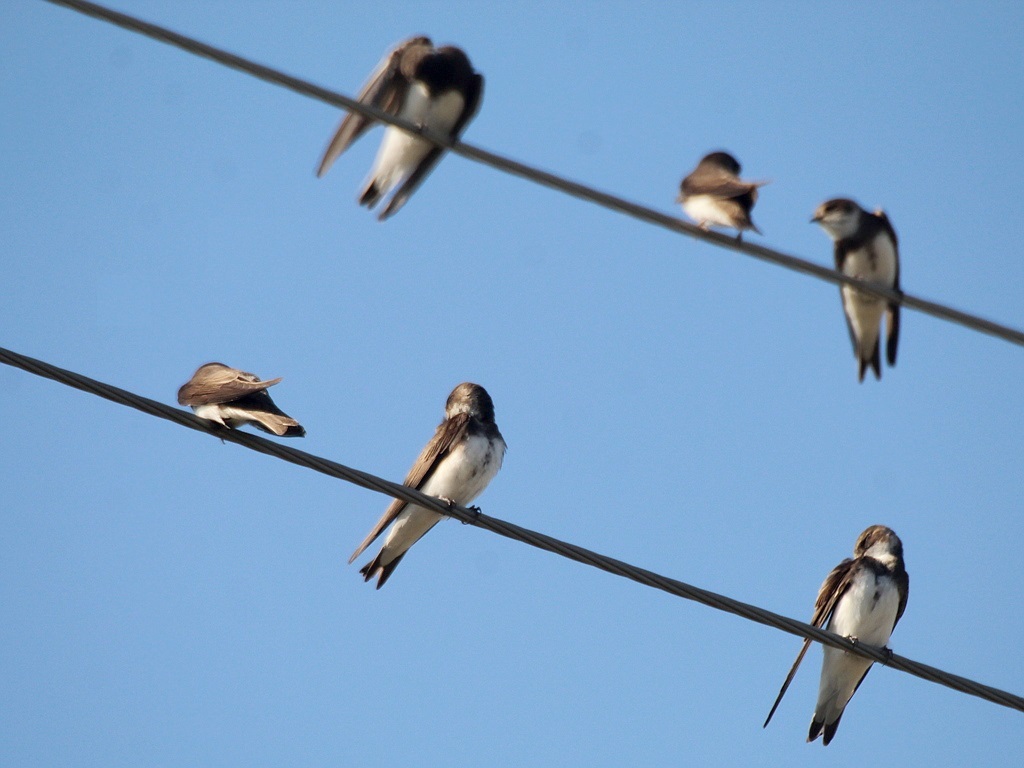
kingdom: Animalia
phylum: Chordata
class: Aves
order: Passeriformes
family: Hirundinidae
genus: Riparia
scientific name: Riparia riparia
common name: Sand martin
